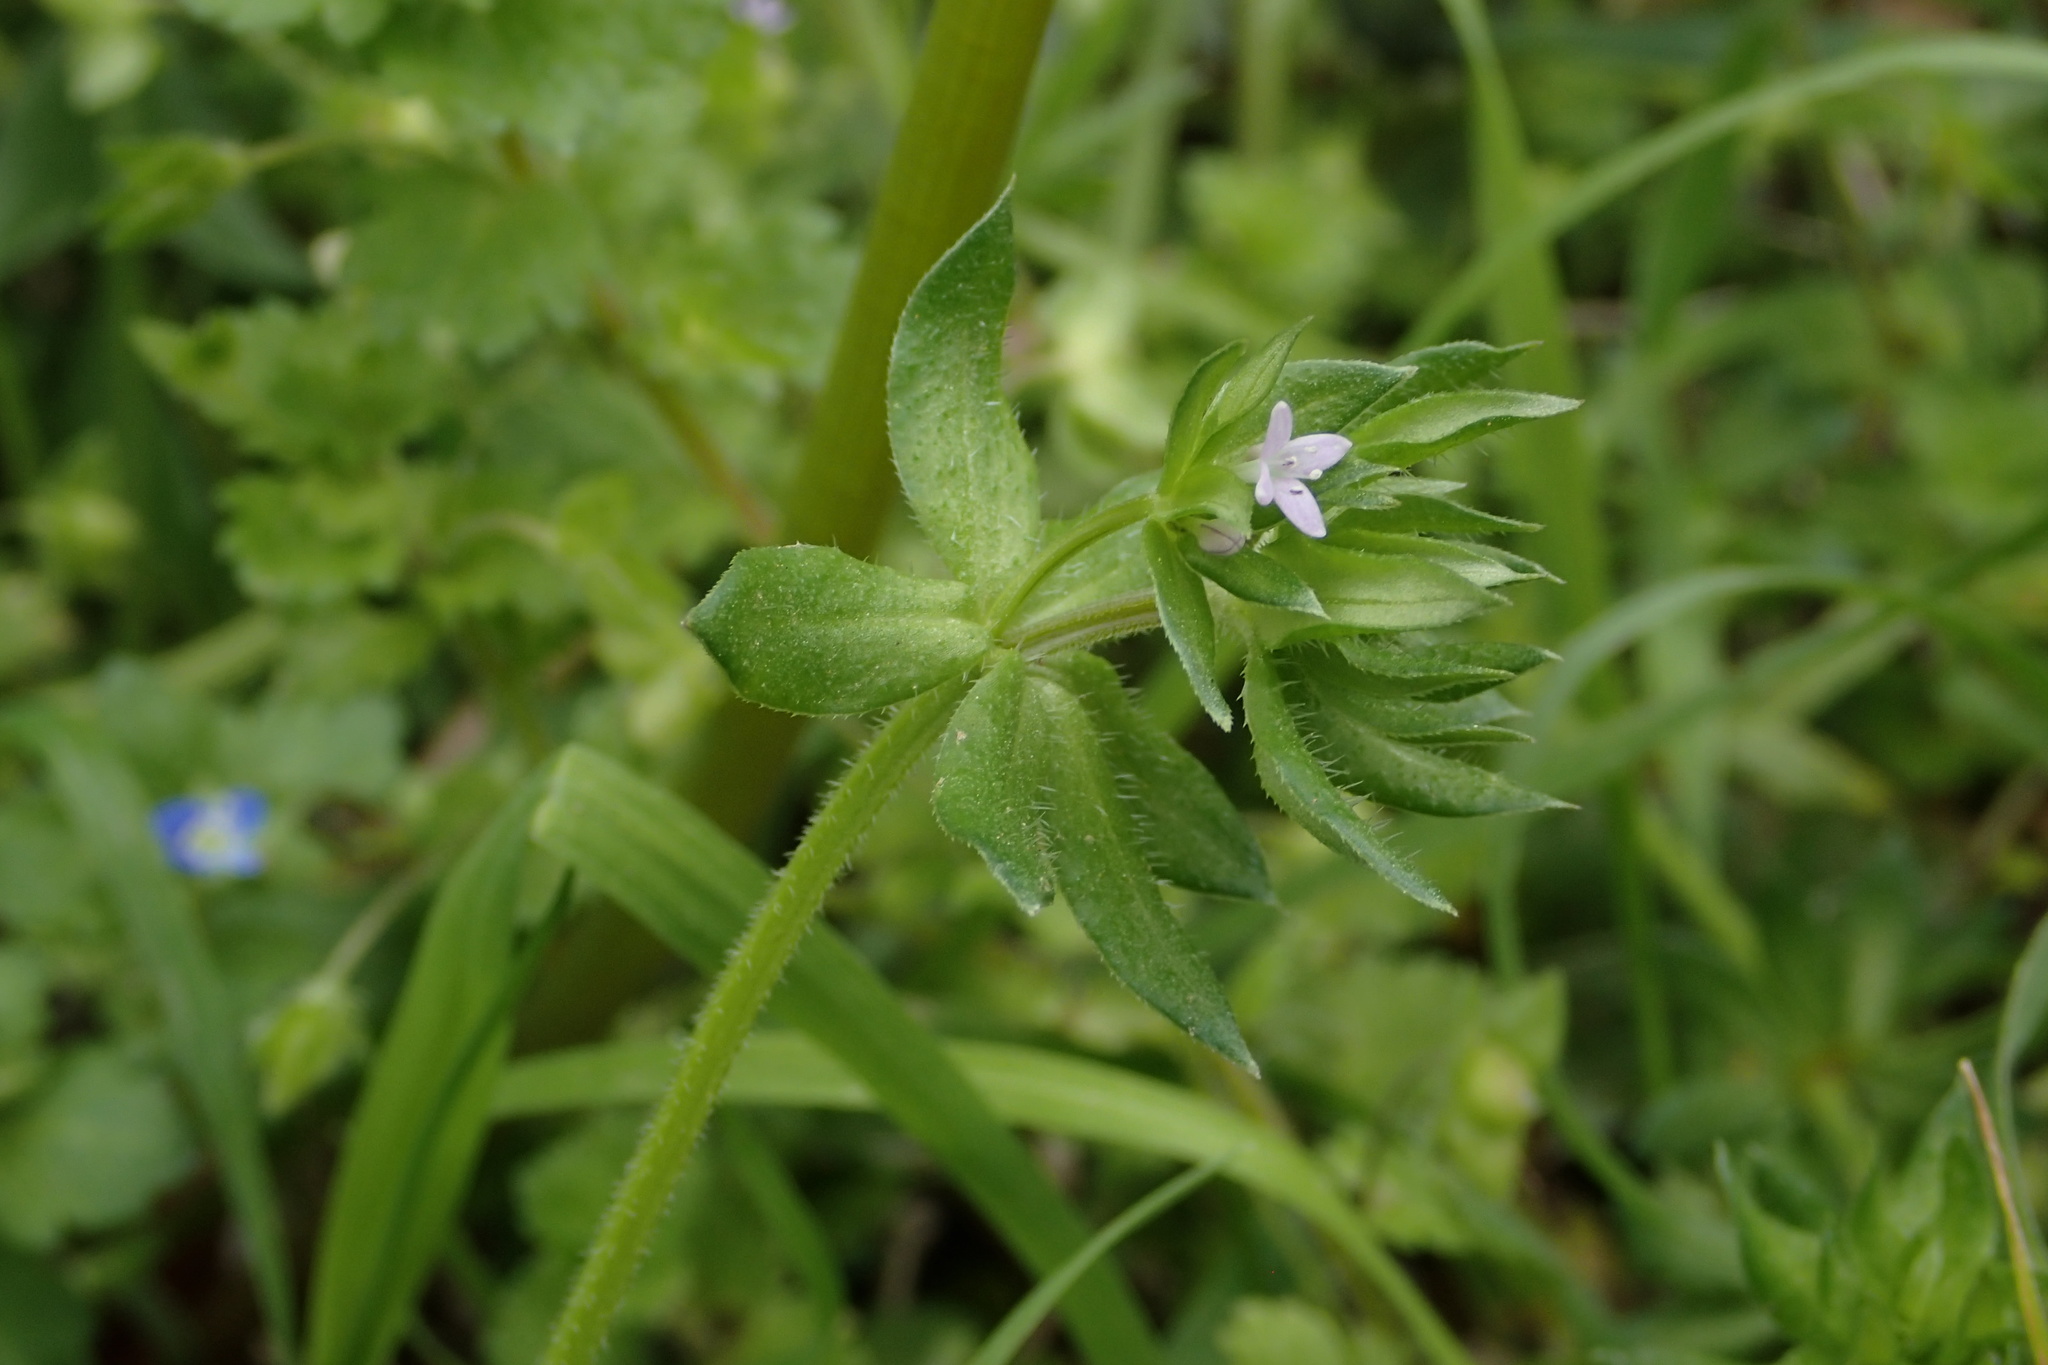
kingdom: Plantae
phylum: Tracheophyta
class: Magnoliopsida
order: Gentianales
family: Rubiaceae
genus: Sherardia
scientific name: Sherardia arvensis
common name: Field madder
